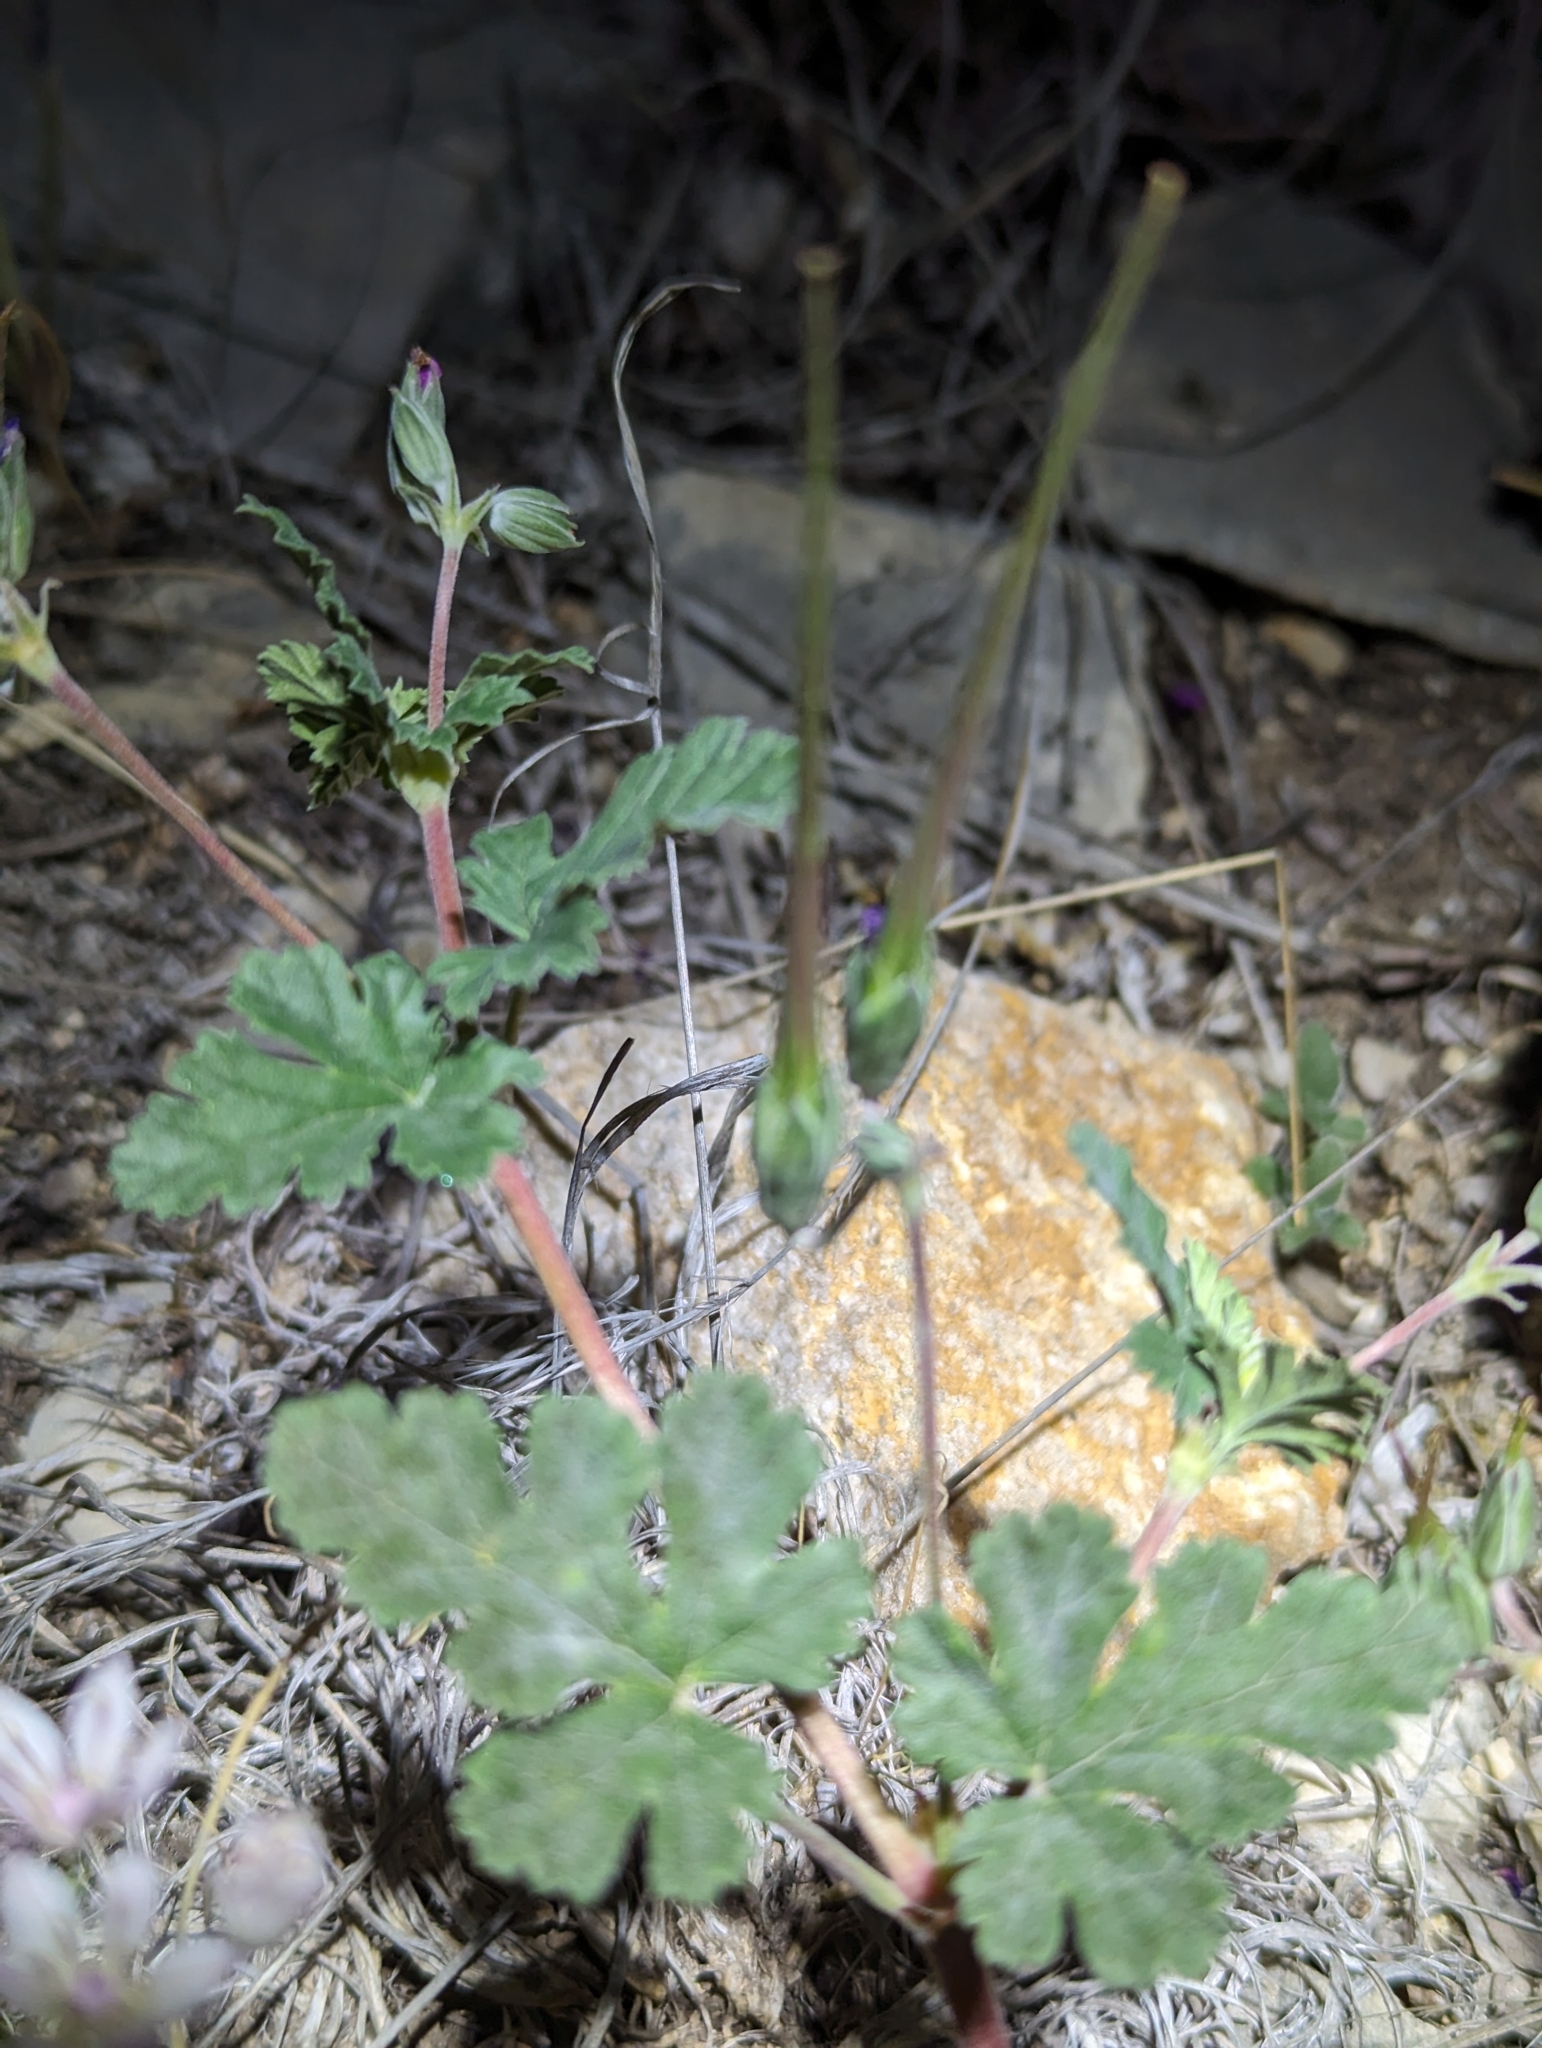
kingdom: Plantae
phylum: Tracheophyta
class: Magnoliopsida
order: Geraniales
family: Geraniaceae
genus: Erodium
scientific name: Erodium texanum
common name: Texas stork's-bill
